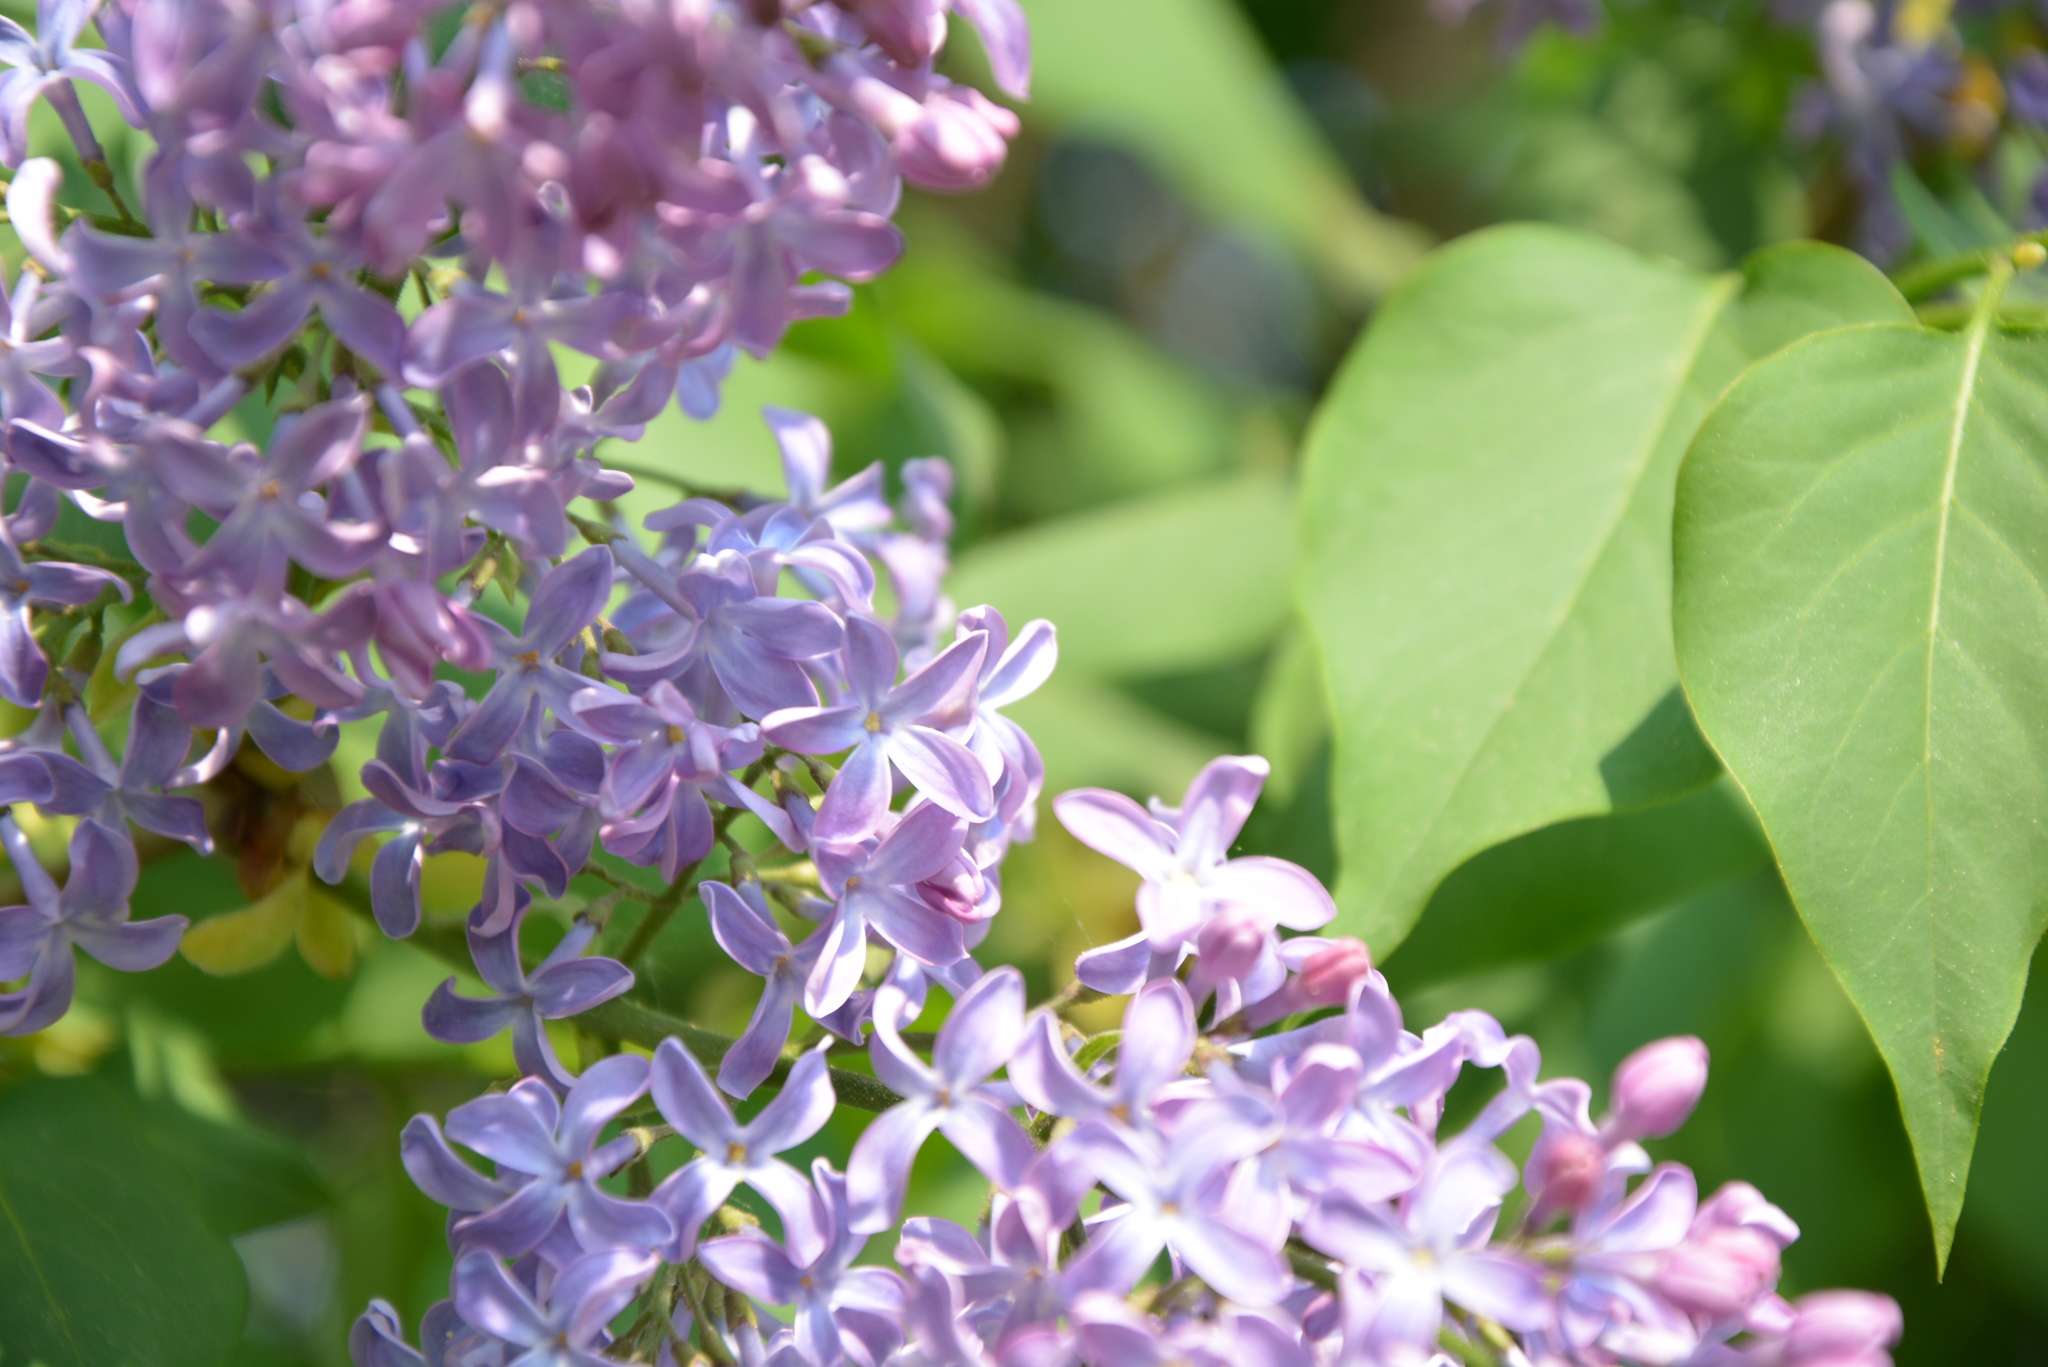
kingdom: Plantae
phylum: Tracheophyta
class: Magnoliopsida
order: Lamiales
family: Oleaceae
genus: Syringa
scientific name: Syringa vulgaris
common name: Common lilac
